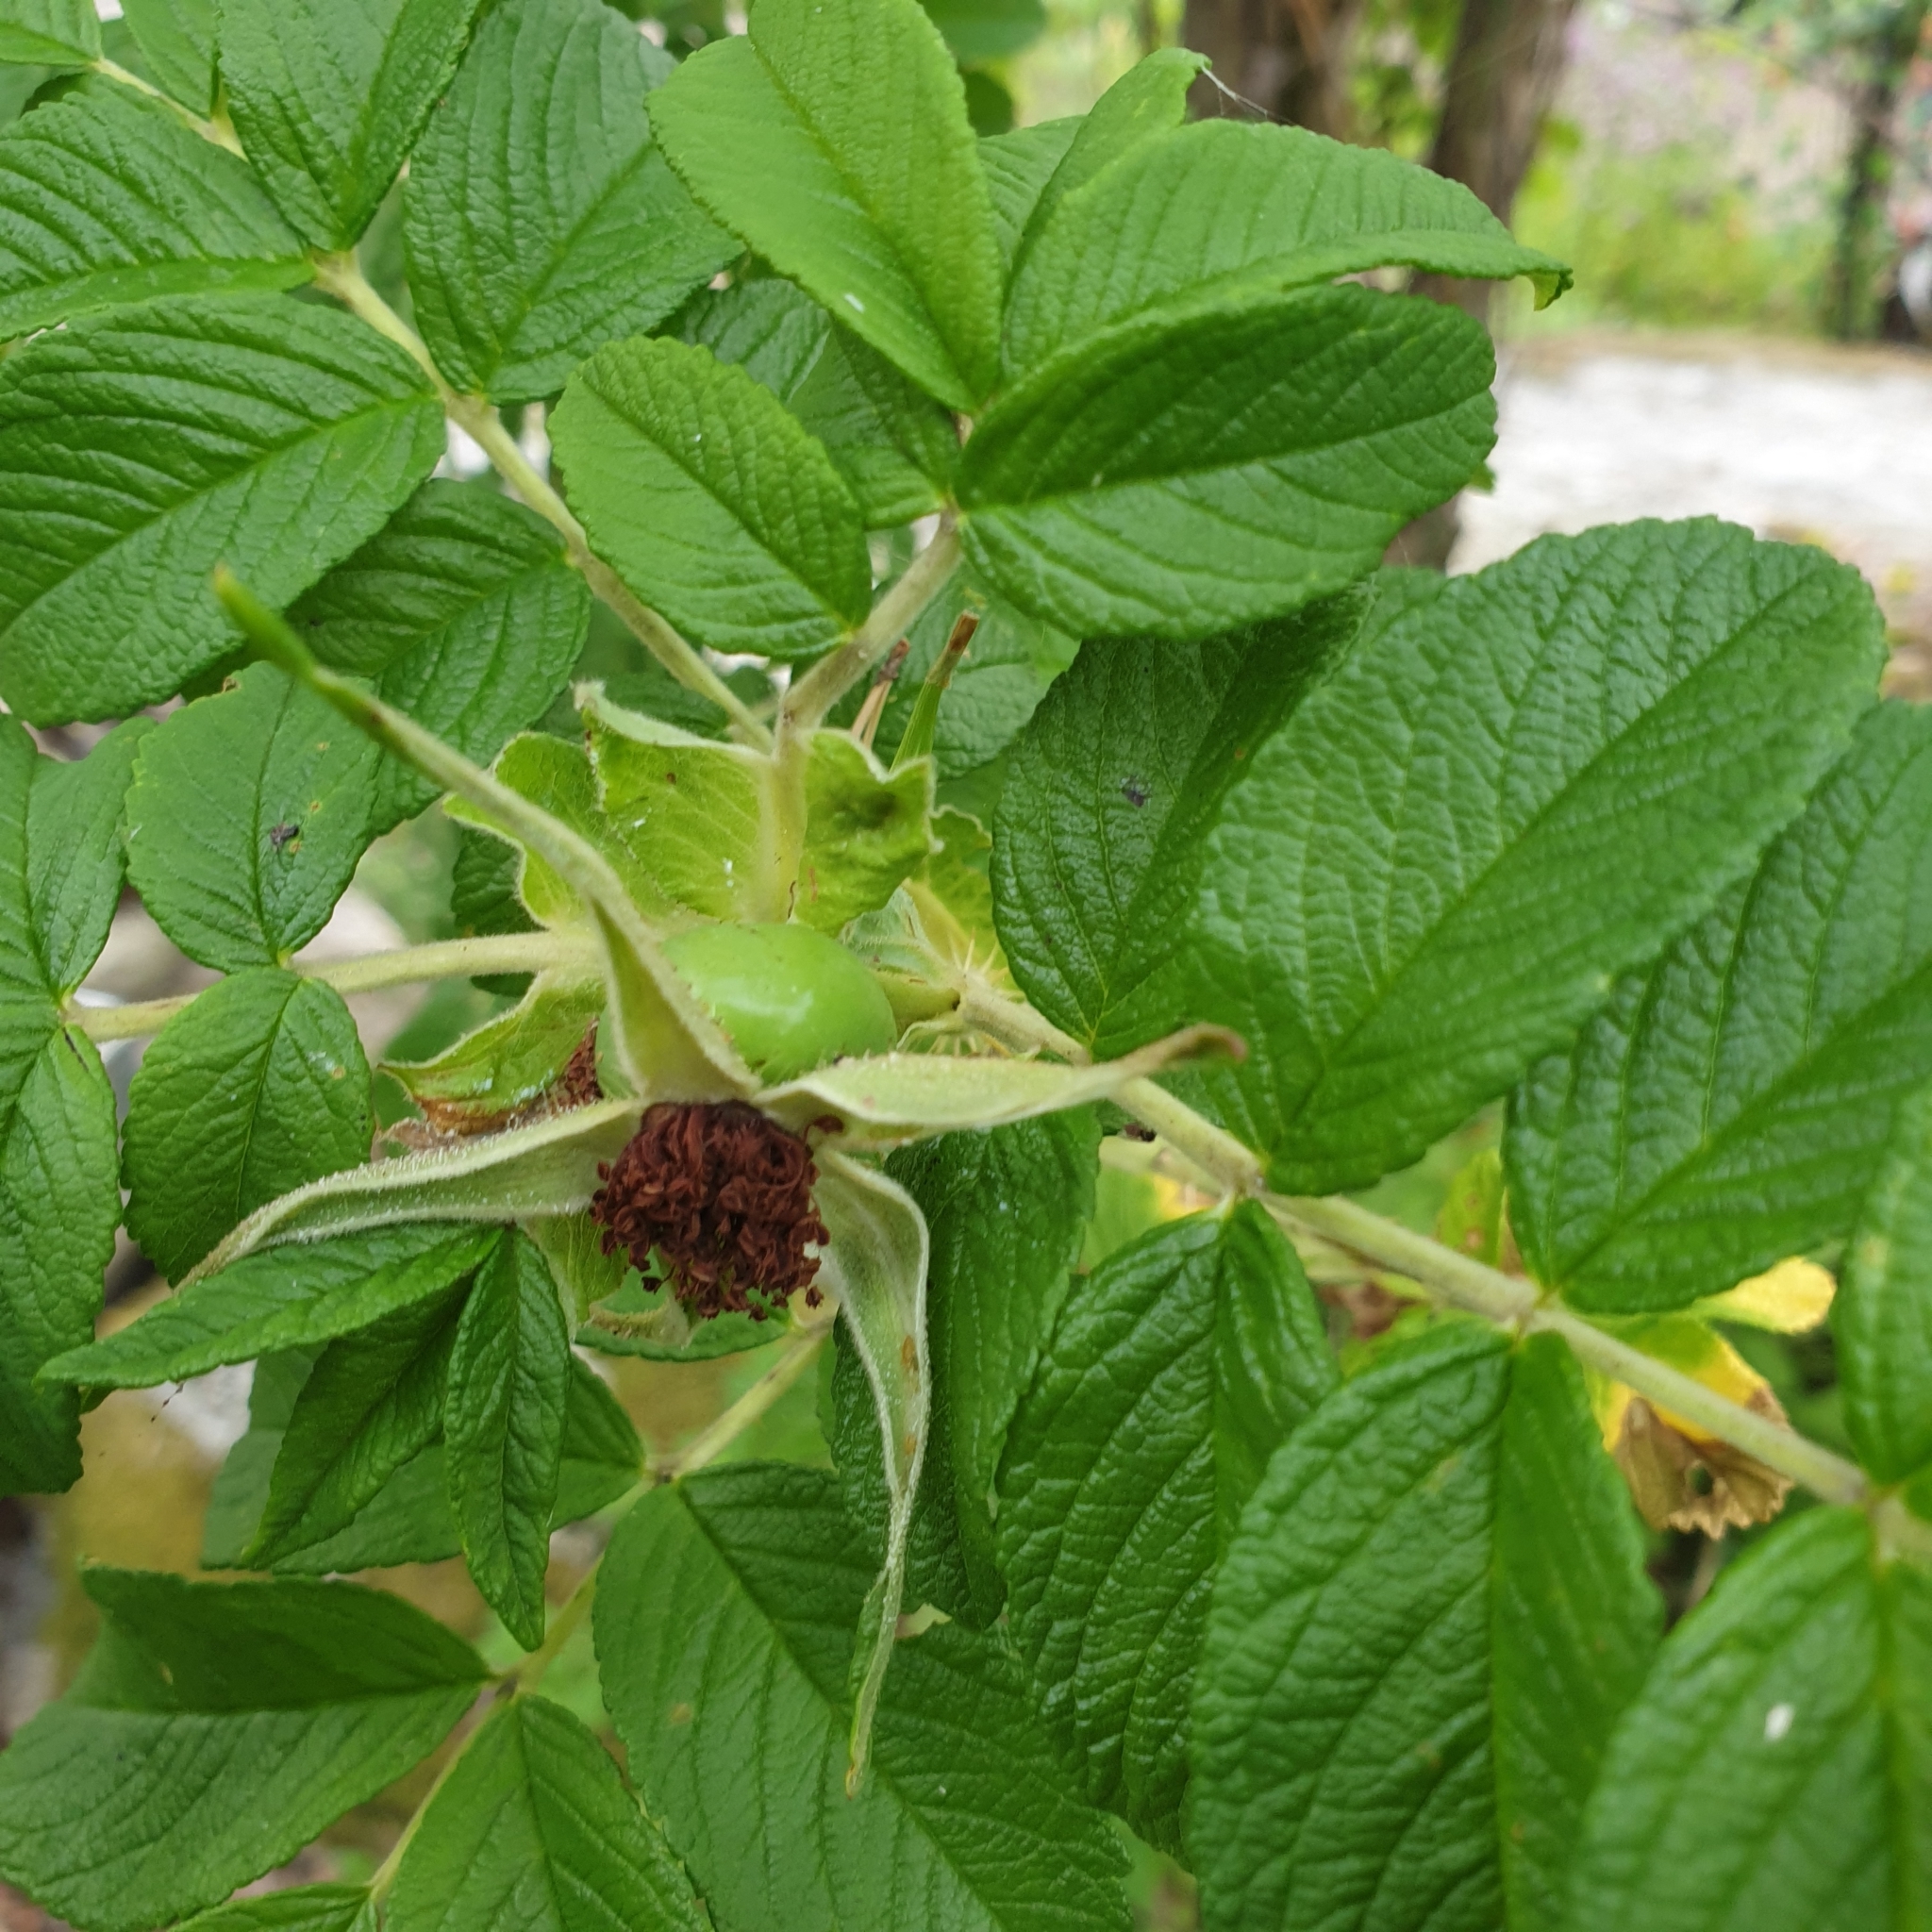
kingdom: Plantae
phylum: Tracheophyta
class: Magnoliopsida
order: Rosales
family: Rosaceae
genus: Rosa
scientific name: Rosa rugosa
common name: Japanese rose
